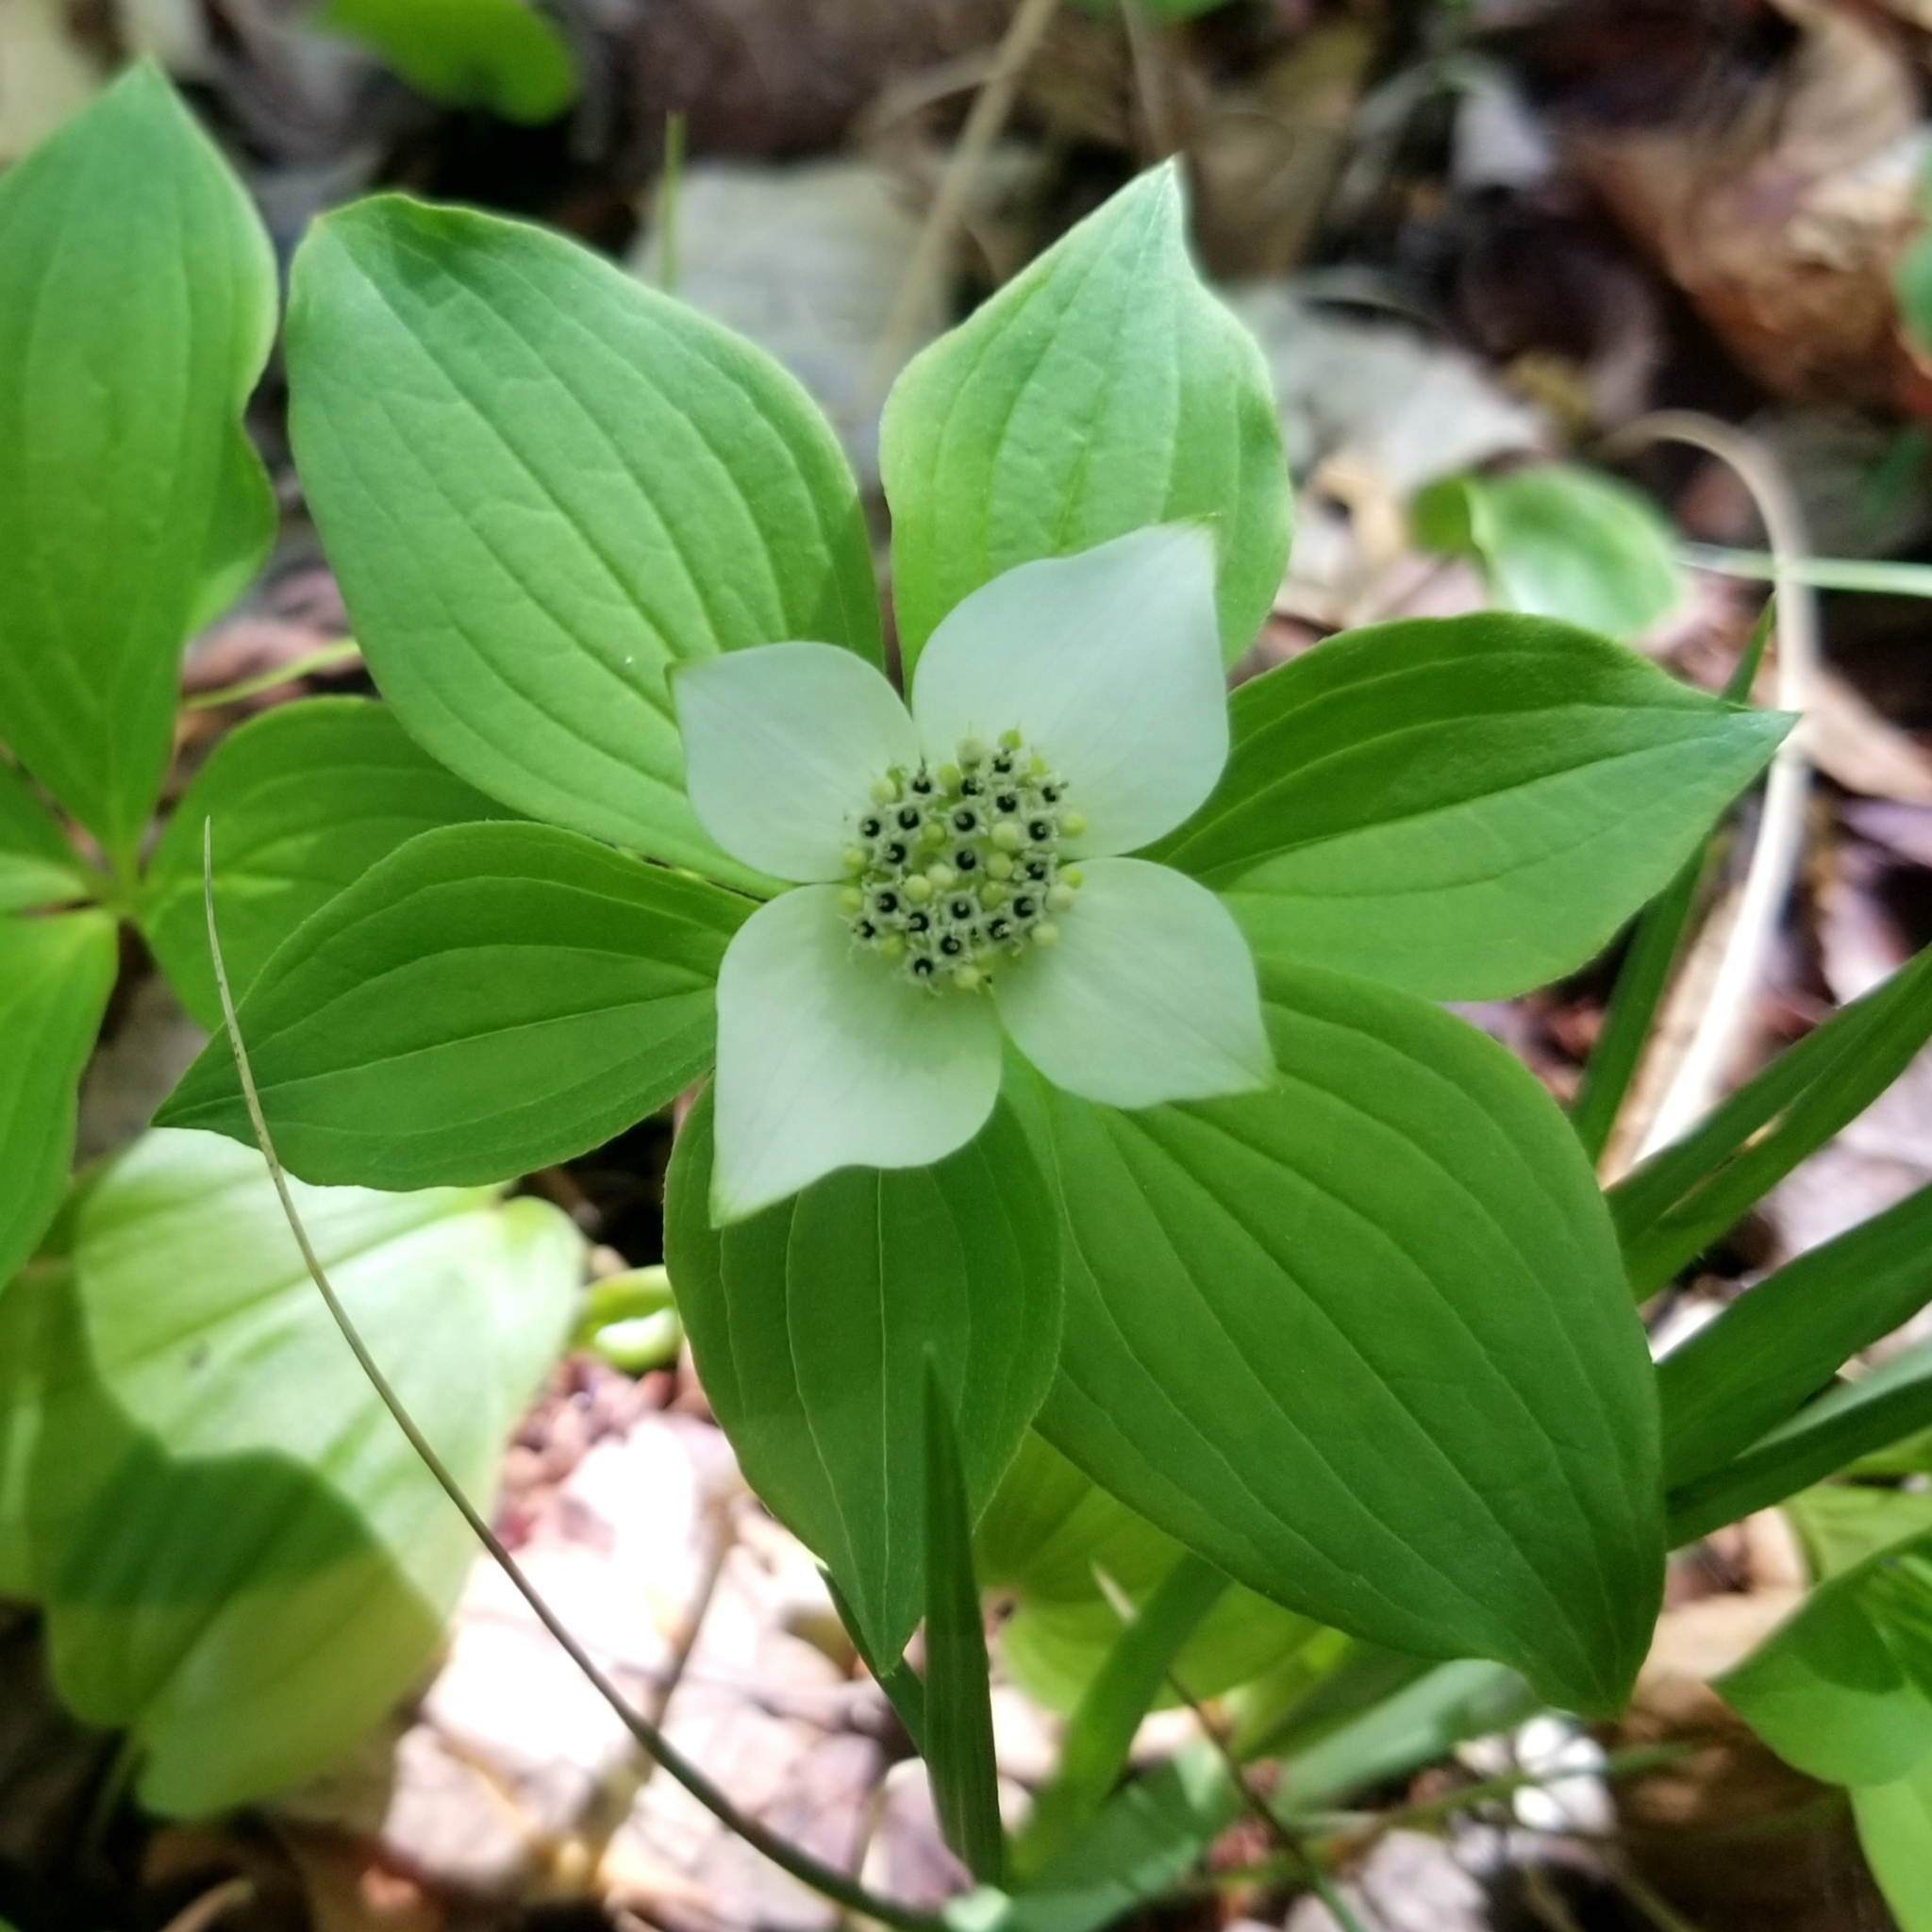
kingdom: Plantae
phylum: Tracheophyta
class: Magnoliopsida
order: Cornales
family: Cornaceae
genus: Cornus
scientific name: Cornus canadensis
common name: Creeping dogwood
